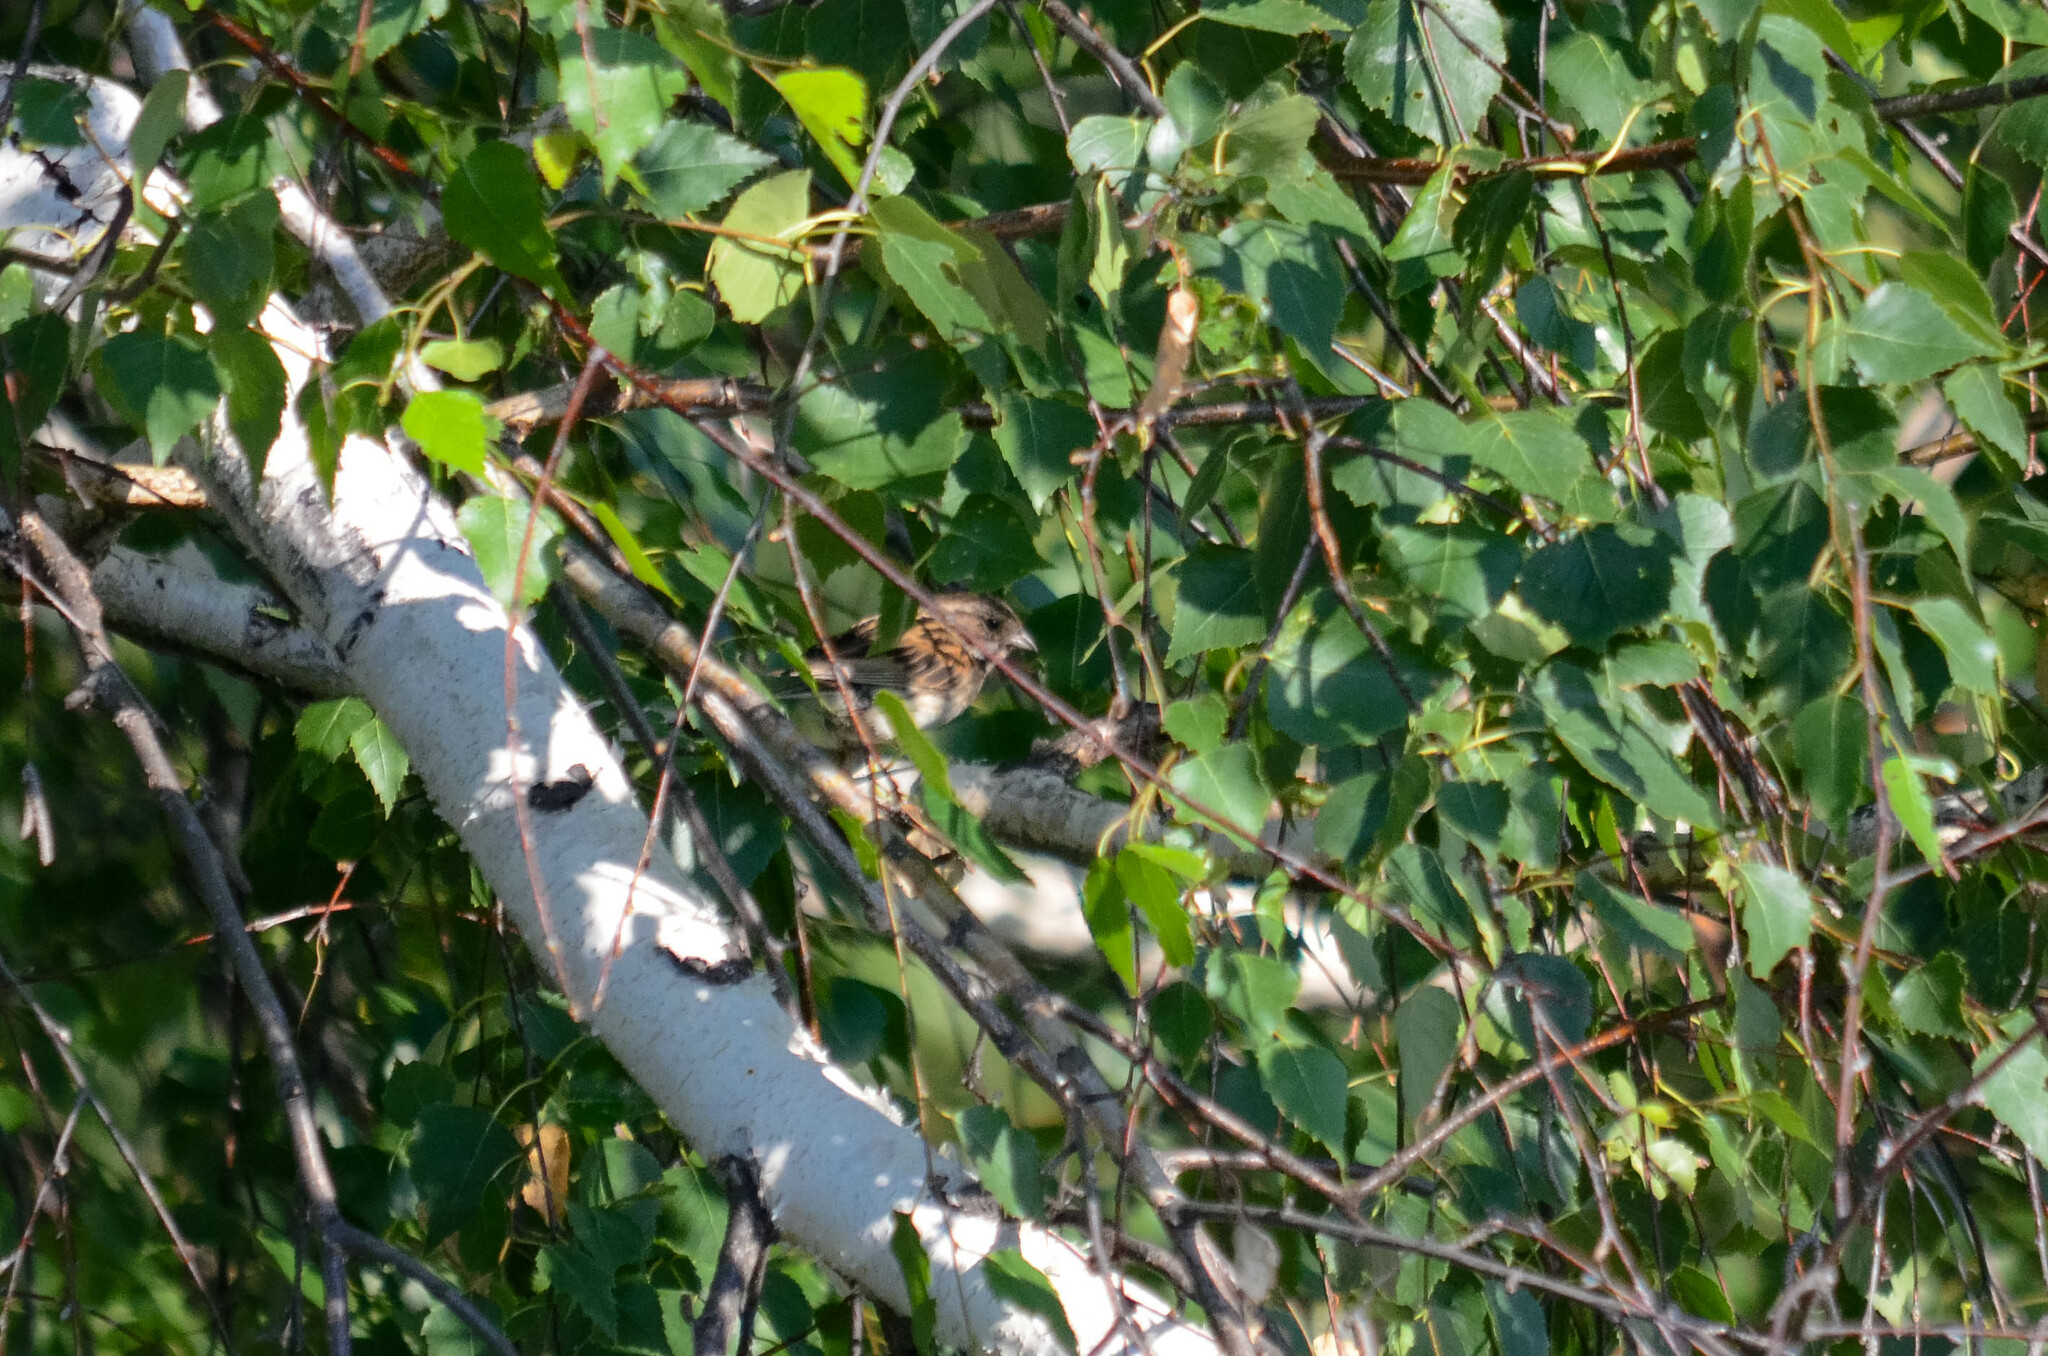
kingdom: Animalia
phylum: Chordata
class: Aves
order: Passeriformes
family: Emberizidae
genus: Emberiza
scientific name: Emberiza schoeniclus
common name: Reed bunting
